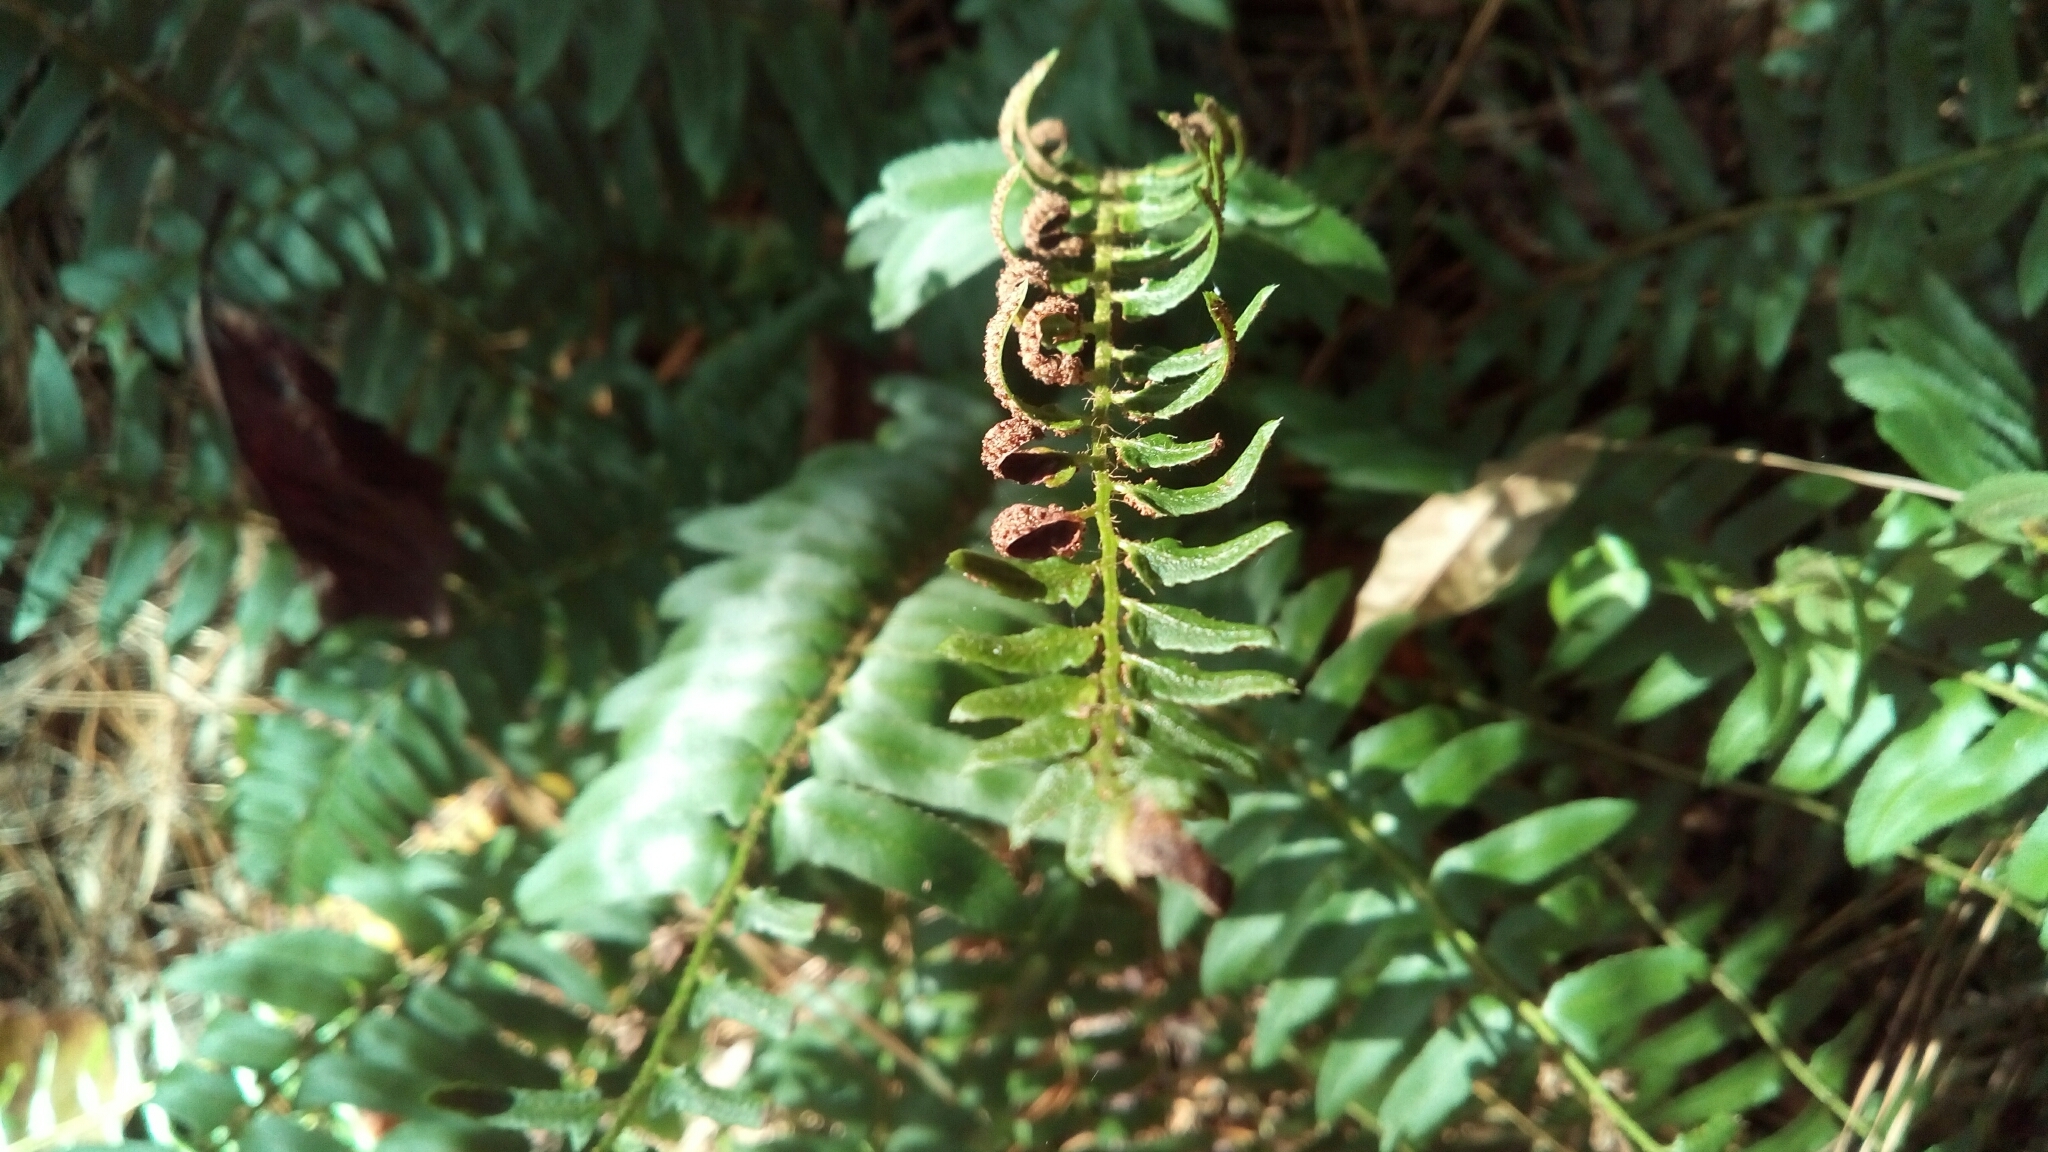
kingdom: Plantae
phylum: Tracheophyta
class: Polypodiopsida
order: Polypodiales
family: Dryopteridaceae
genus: Polystichum
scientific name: Polystichum acrostichoides
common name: Christmas fern
